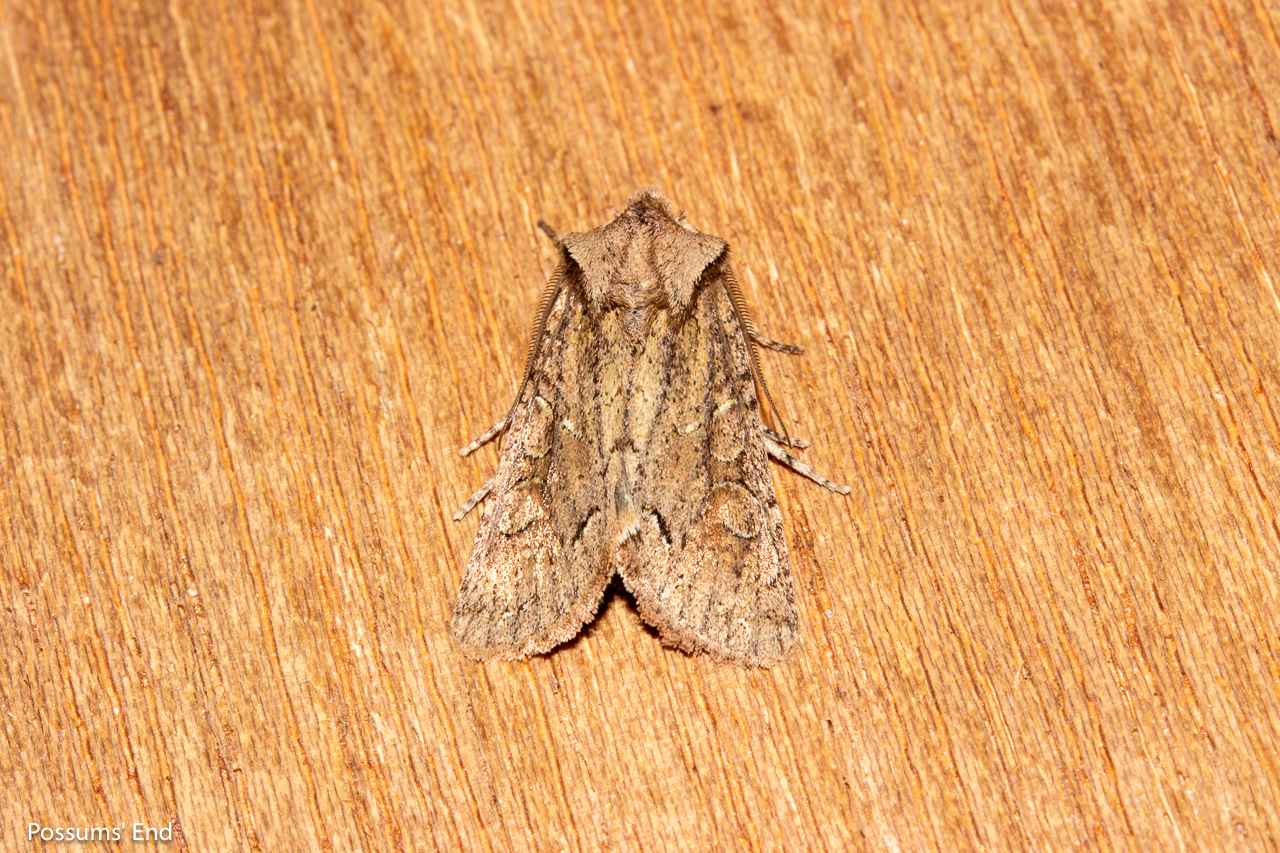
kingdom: Animalia
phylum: Arthropoda
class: Insecta
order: Lepidoptera
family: Noctuidae
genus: Ichneutica
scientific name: Ichneutica skelloni
